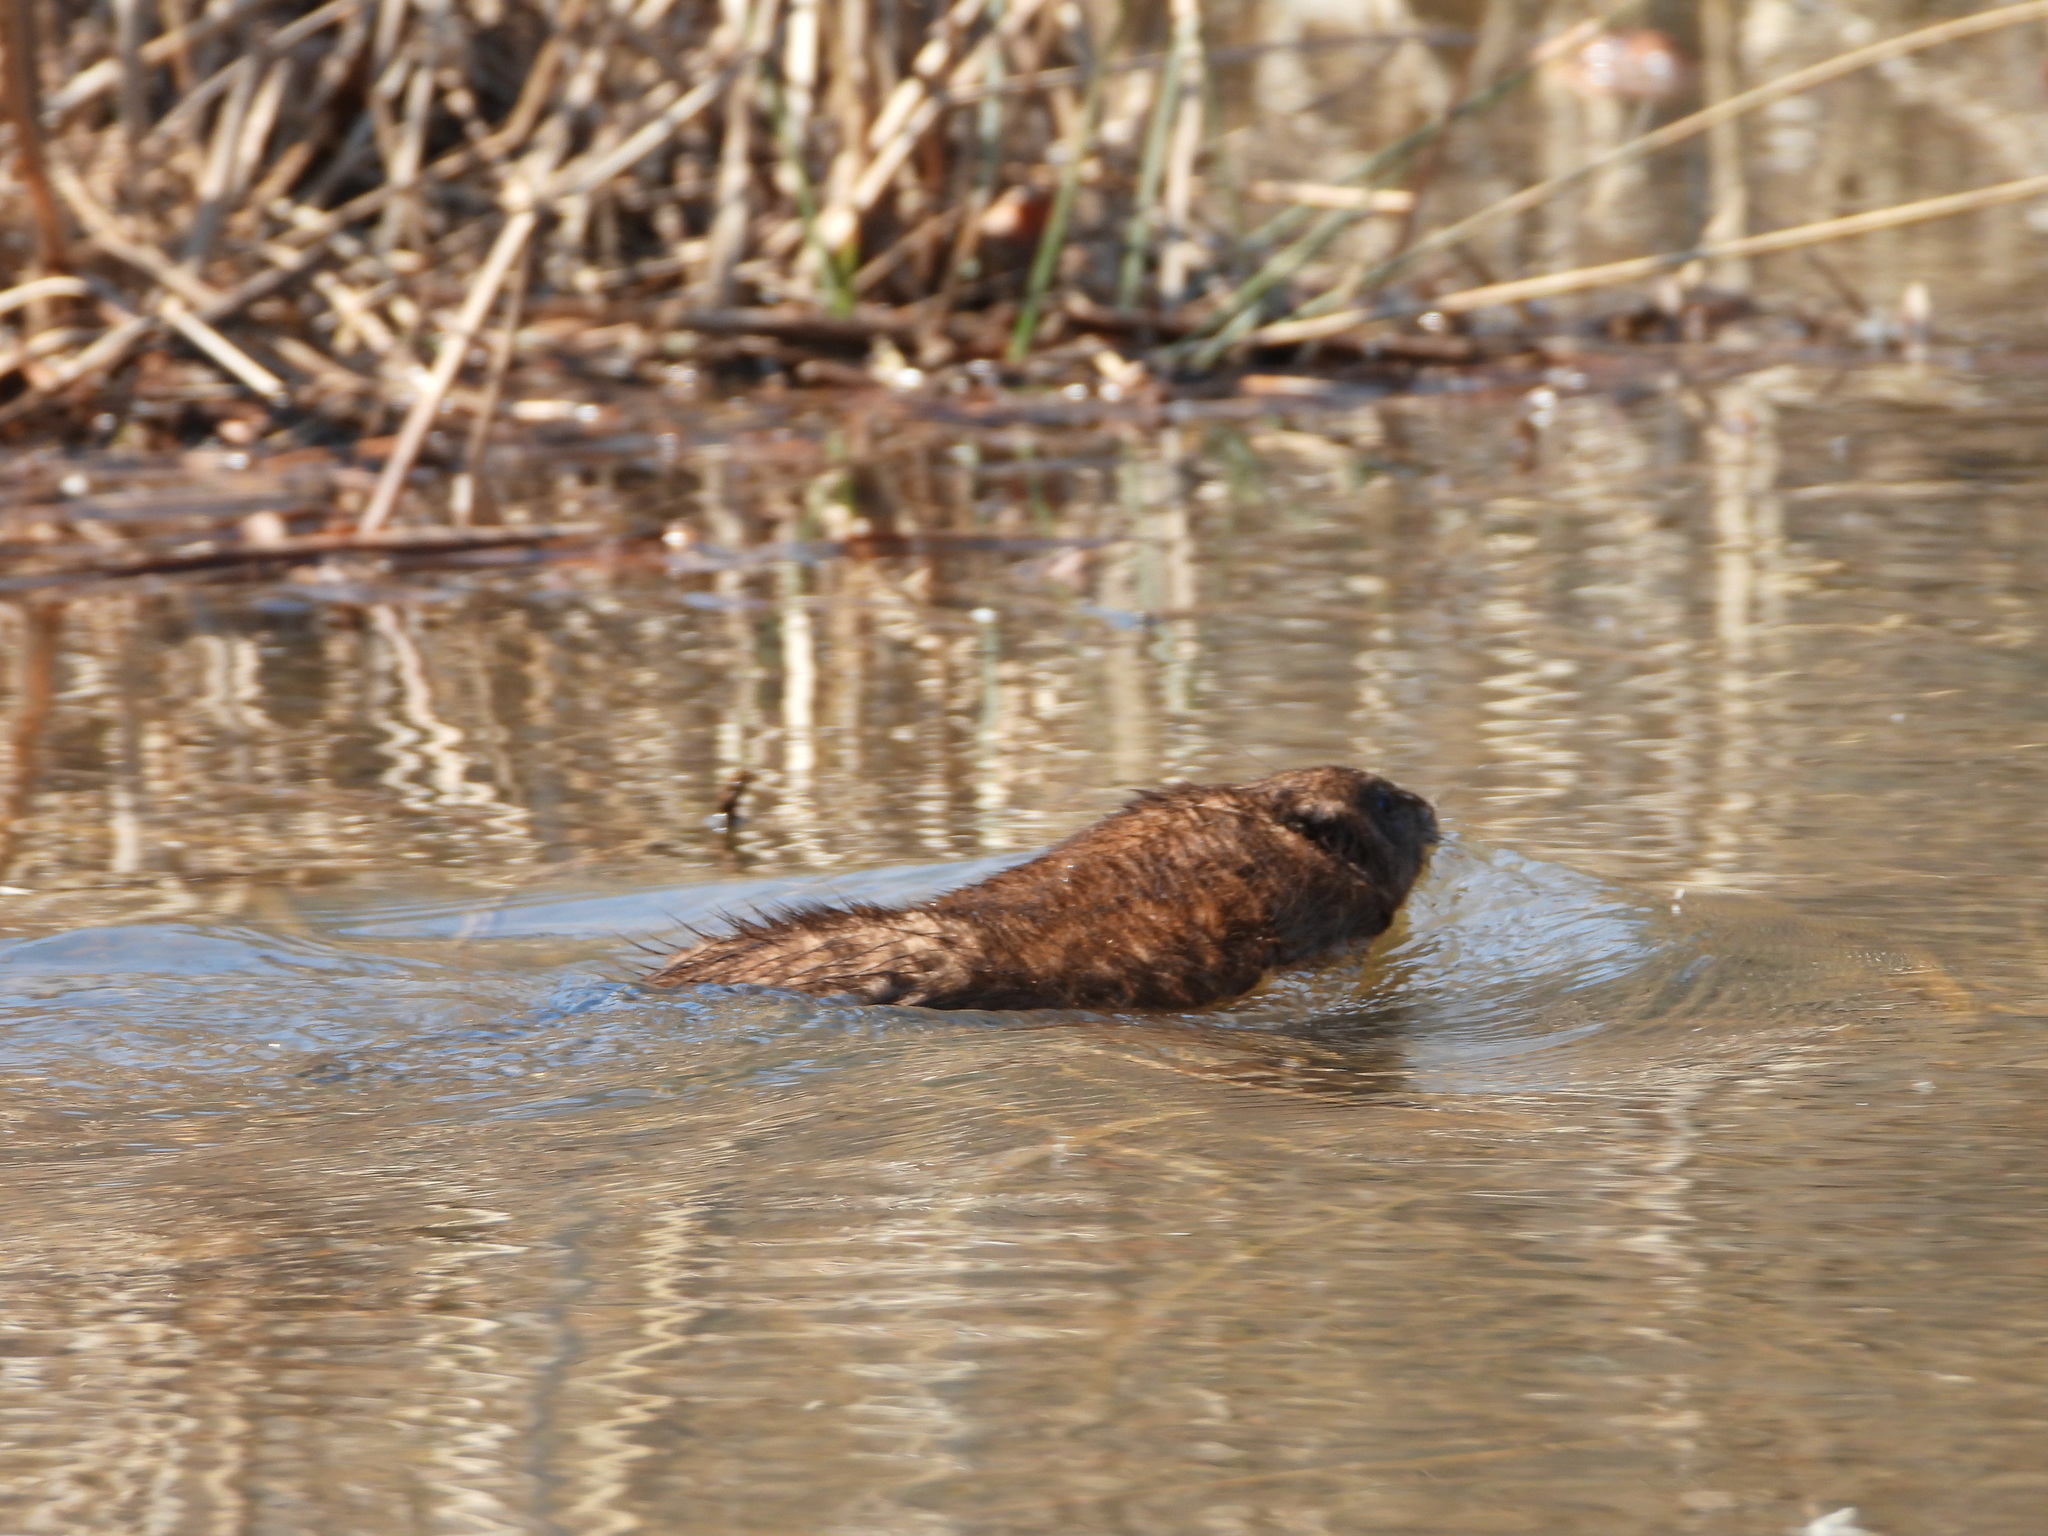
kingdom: Animalia
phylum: Chordata
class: Mammalia
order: Rodentia
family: Cricetidae
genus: Ondatra
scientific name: Ondatra zibethicus
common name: Muskrat
